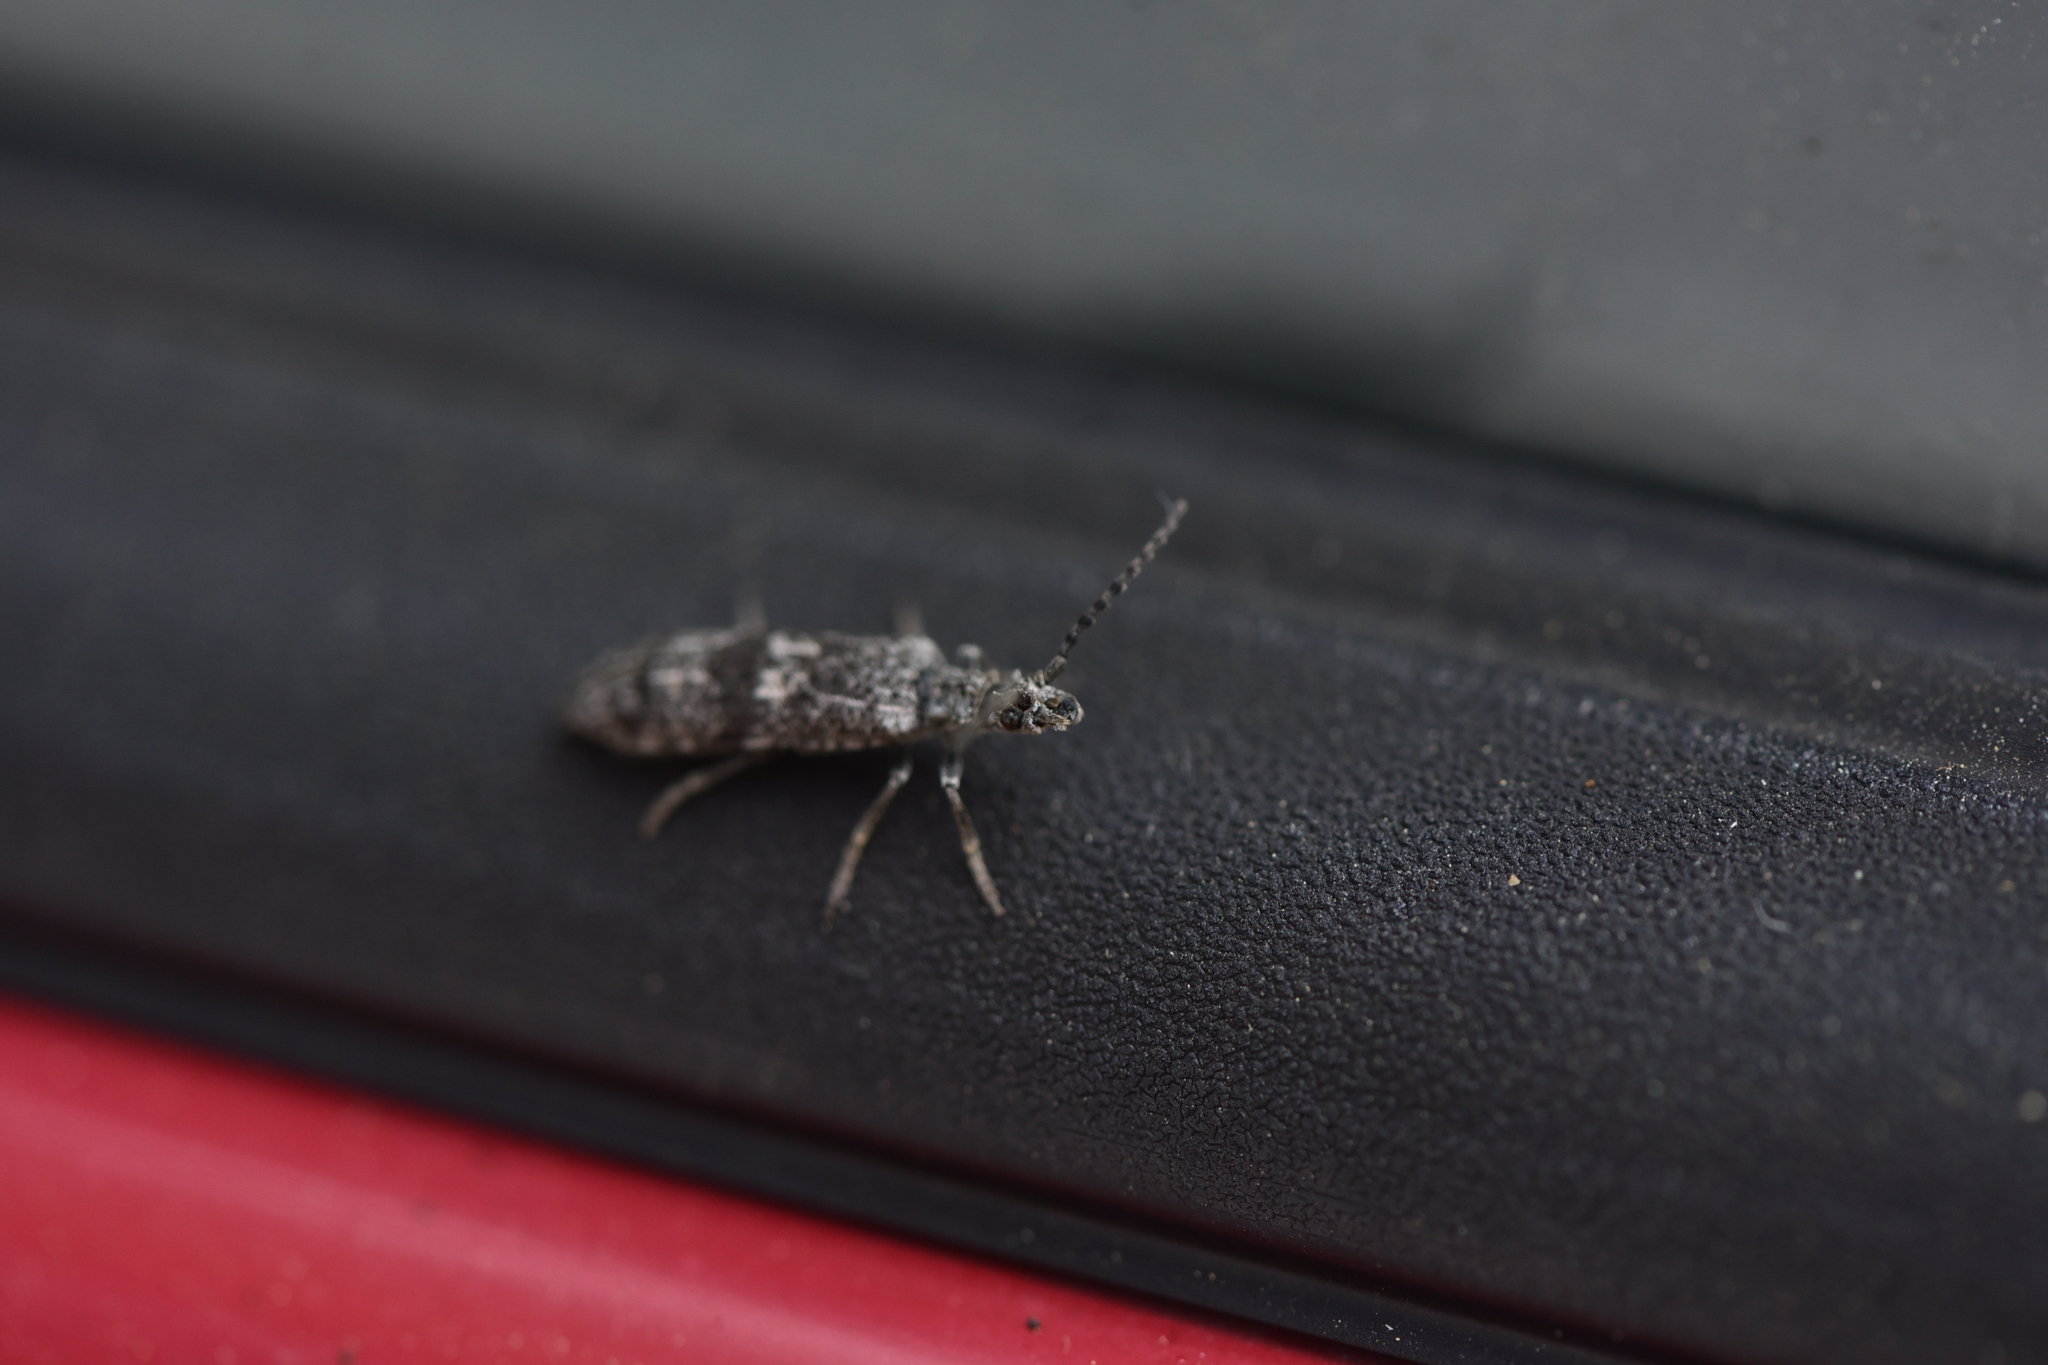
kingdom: Animalia
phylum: Arthropoda
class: Insecta
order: Coleoptera
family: Cupedidae
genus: Priacma
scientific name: Priacma serrata
